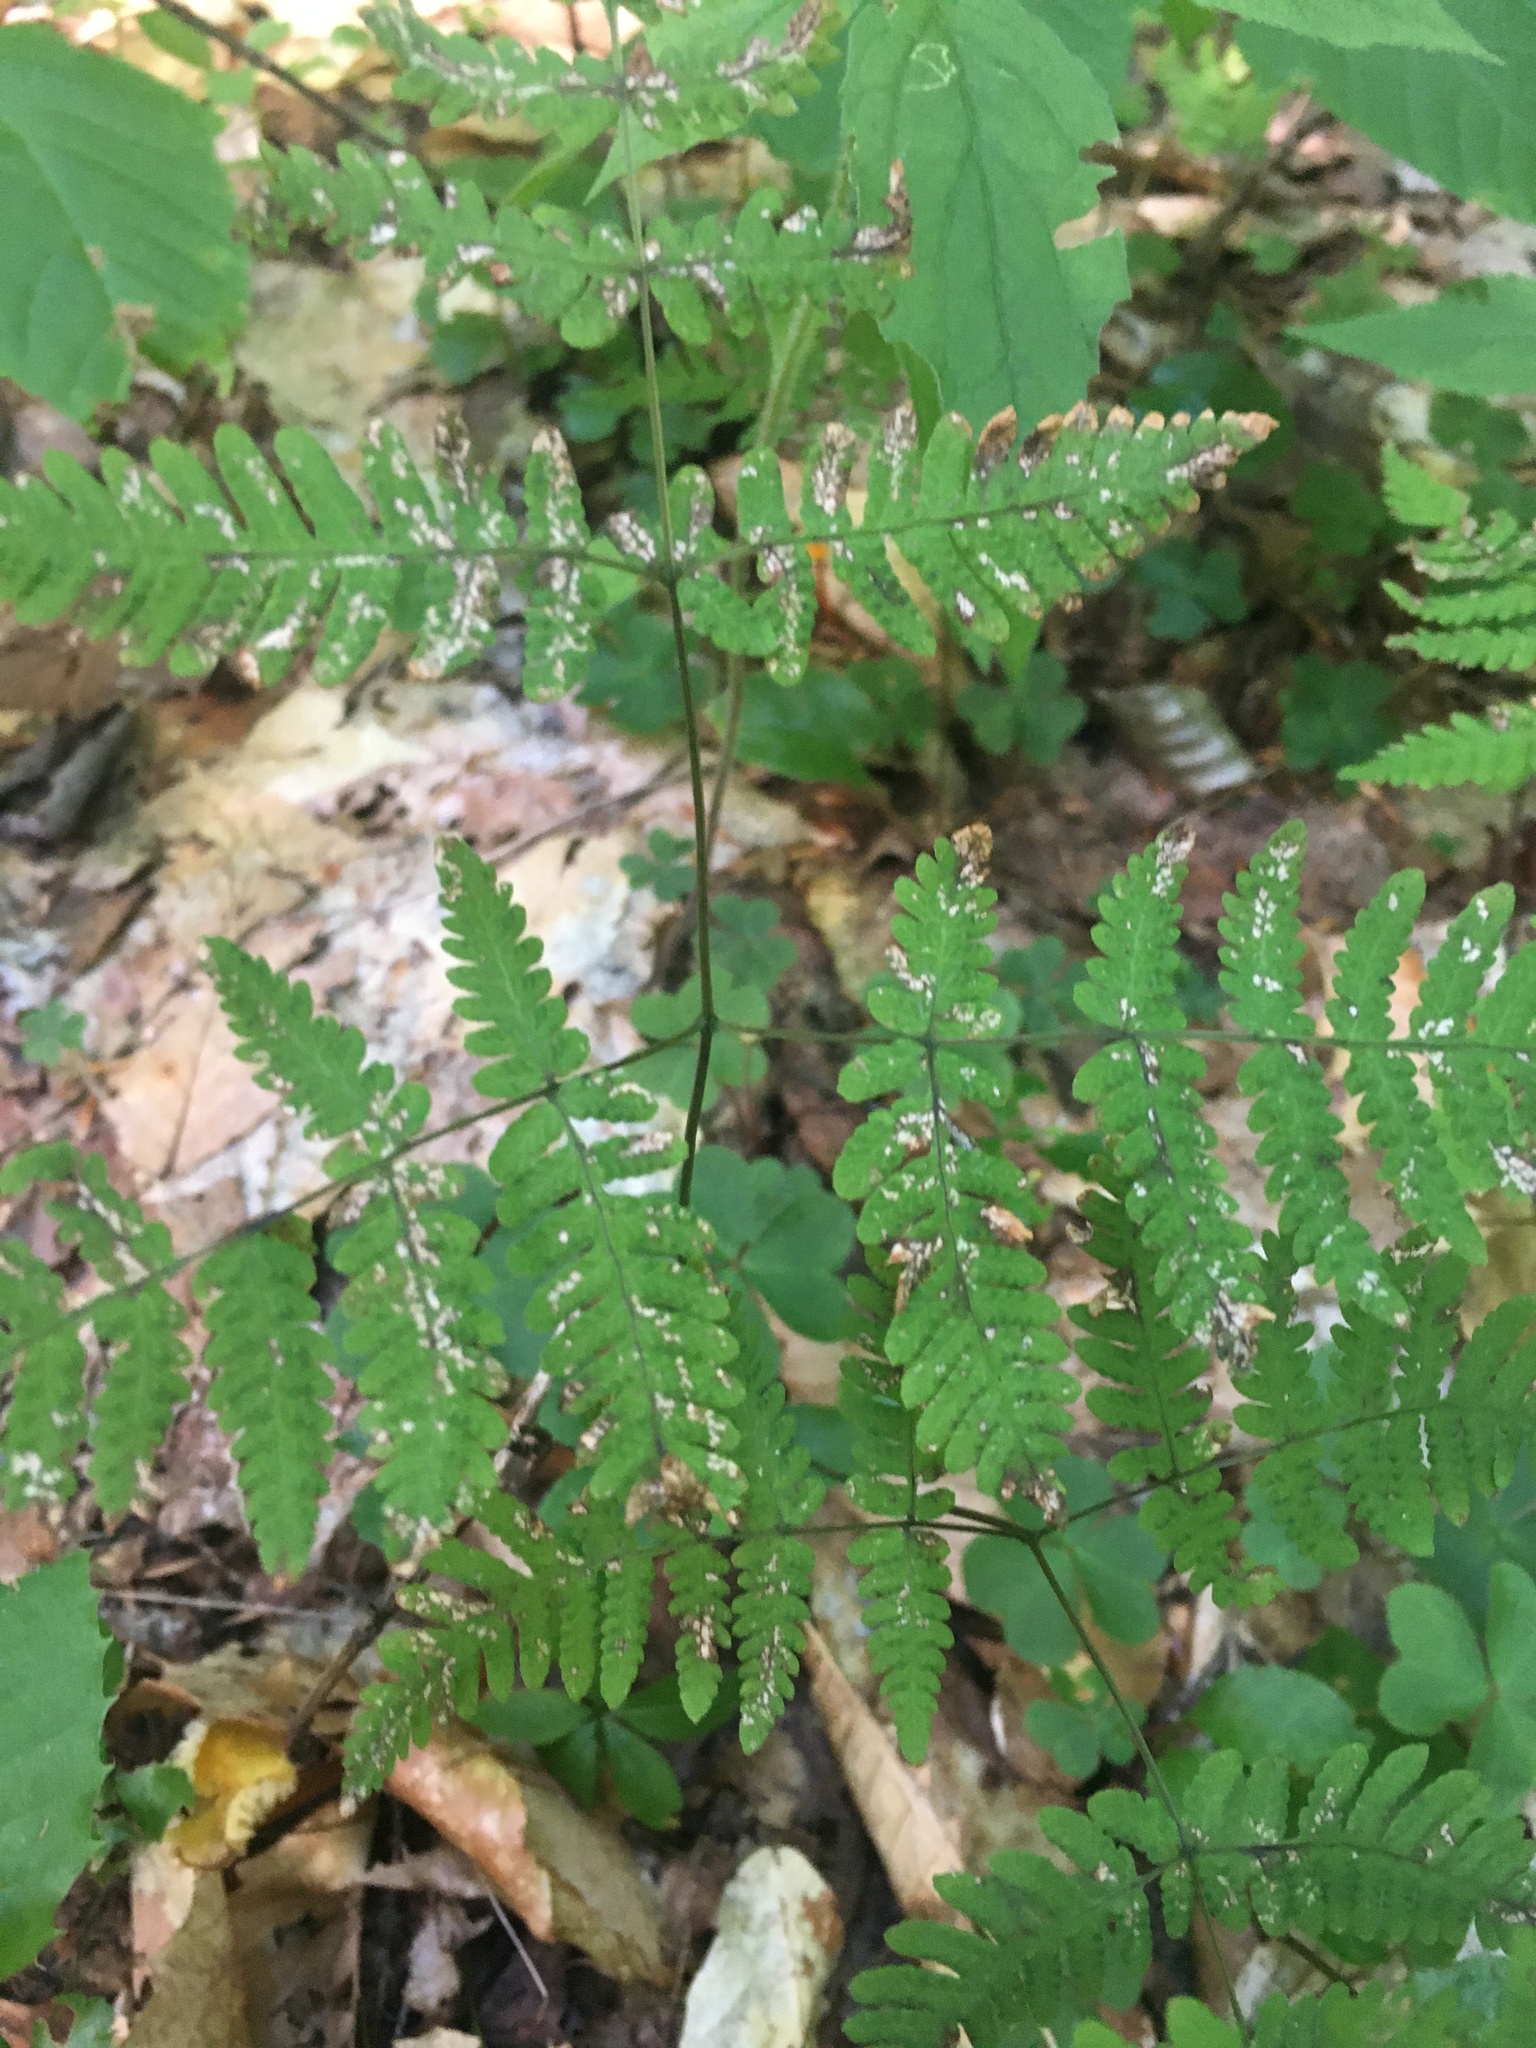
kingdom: Plantae
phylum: Tracheophyta
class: Polypodiopsida
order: Polypodiales
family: Cystopteridaceae
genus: Gymnocarpium
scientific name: Gymnocarpium dryopteris
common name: Oak fern
